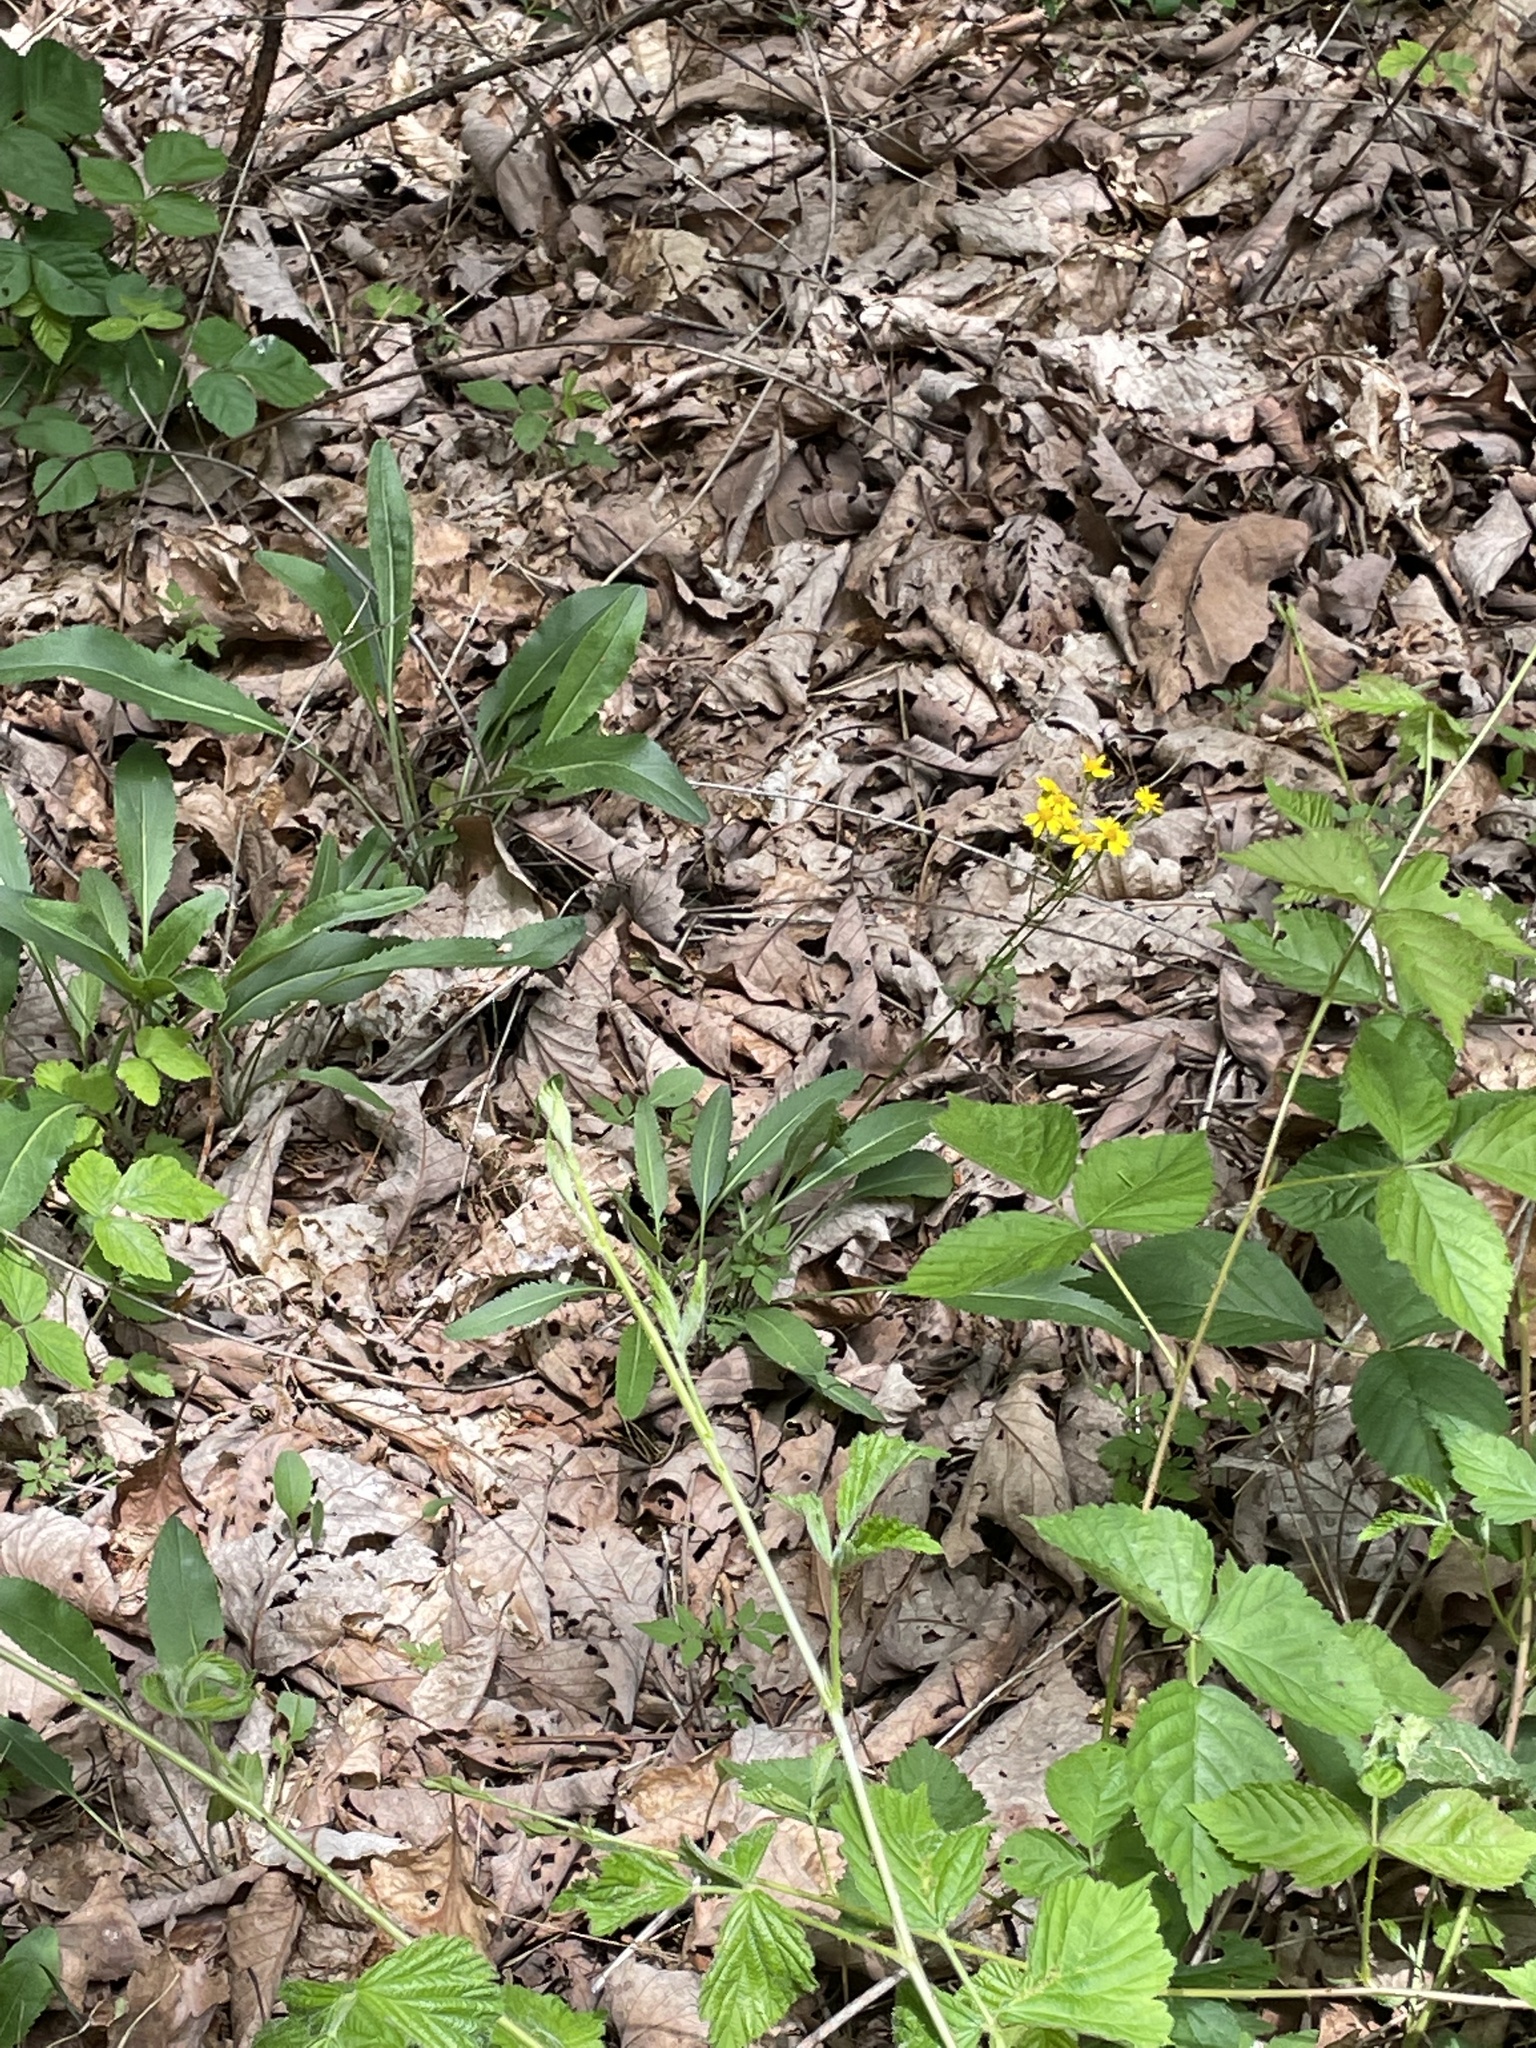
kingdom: Plantae
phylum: Tracheophyta
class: Magnoliopsida
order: Asterales
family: Asteraceae
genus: Packera
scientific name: Packera anonyma
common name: Small ragwort
